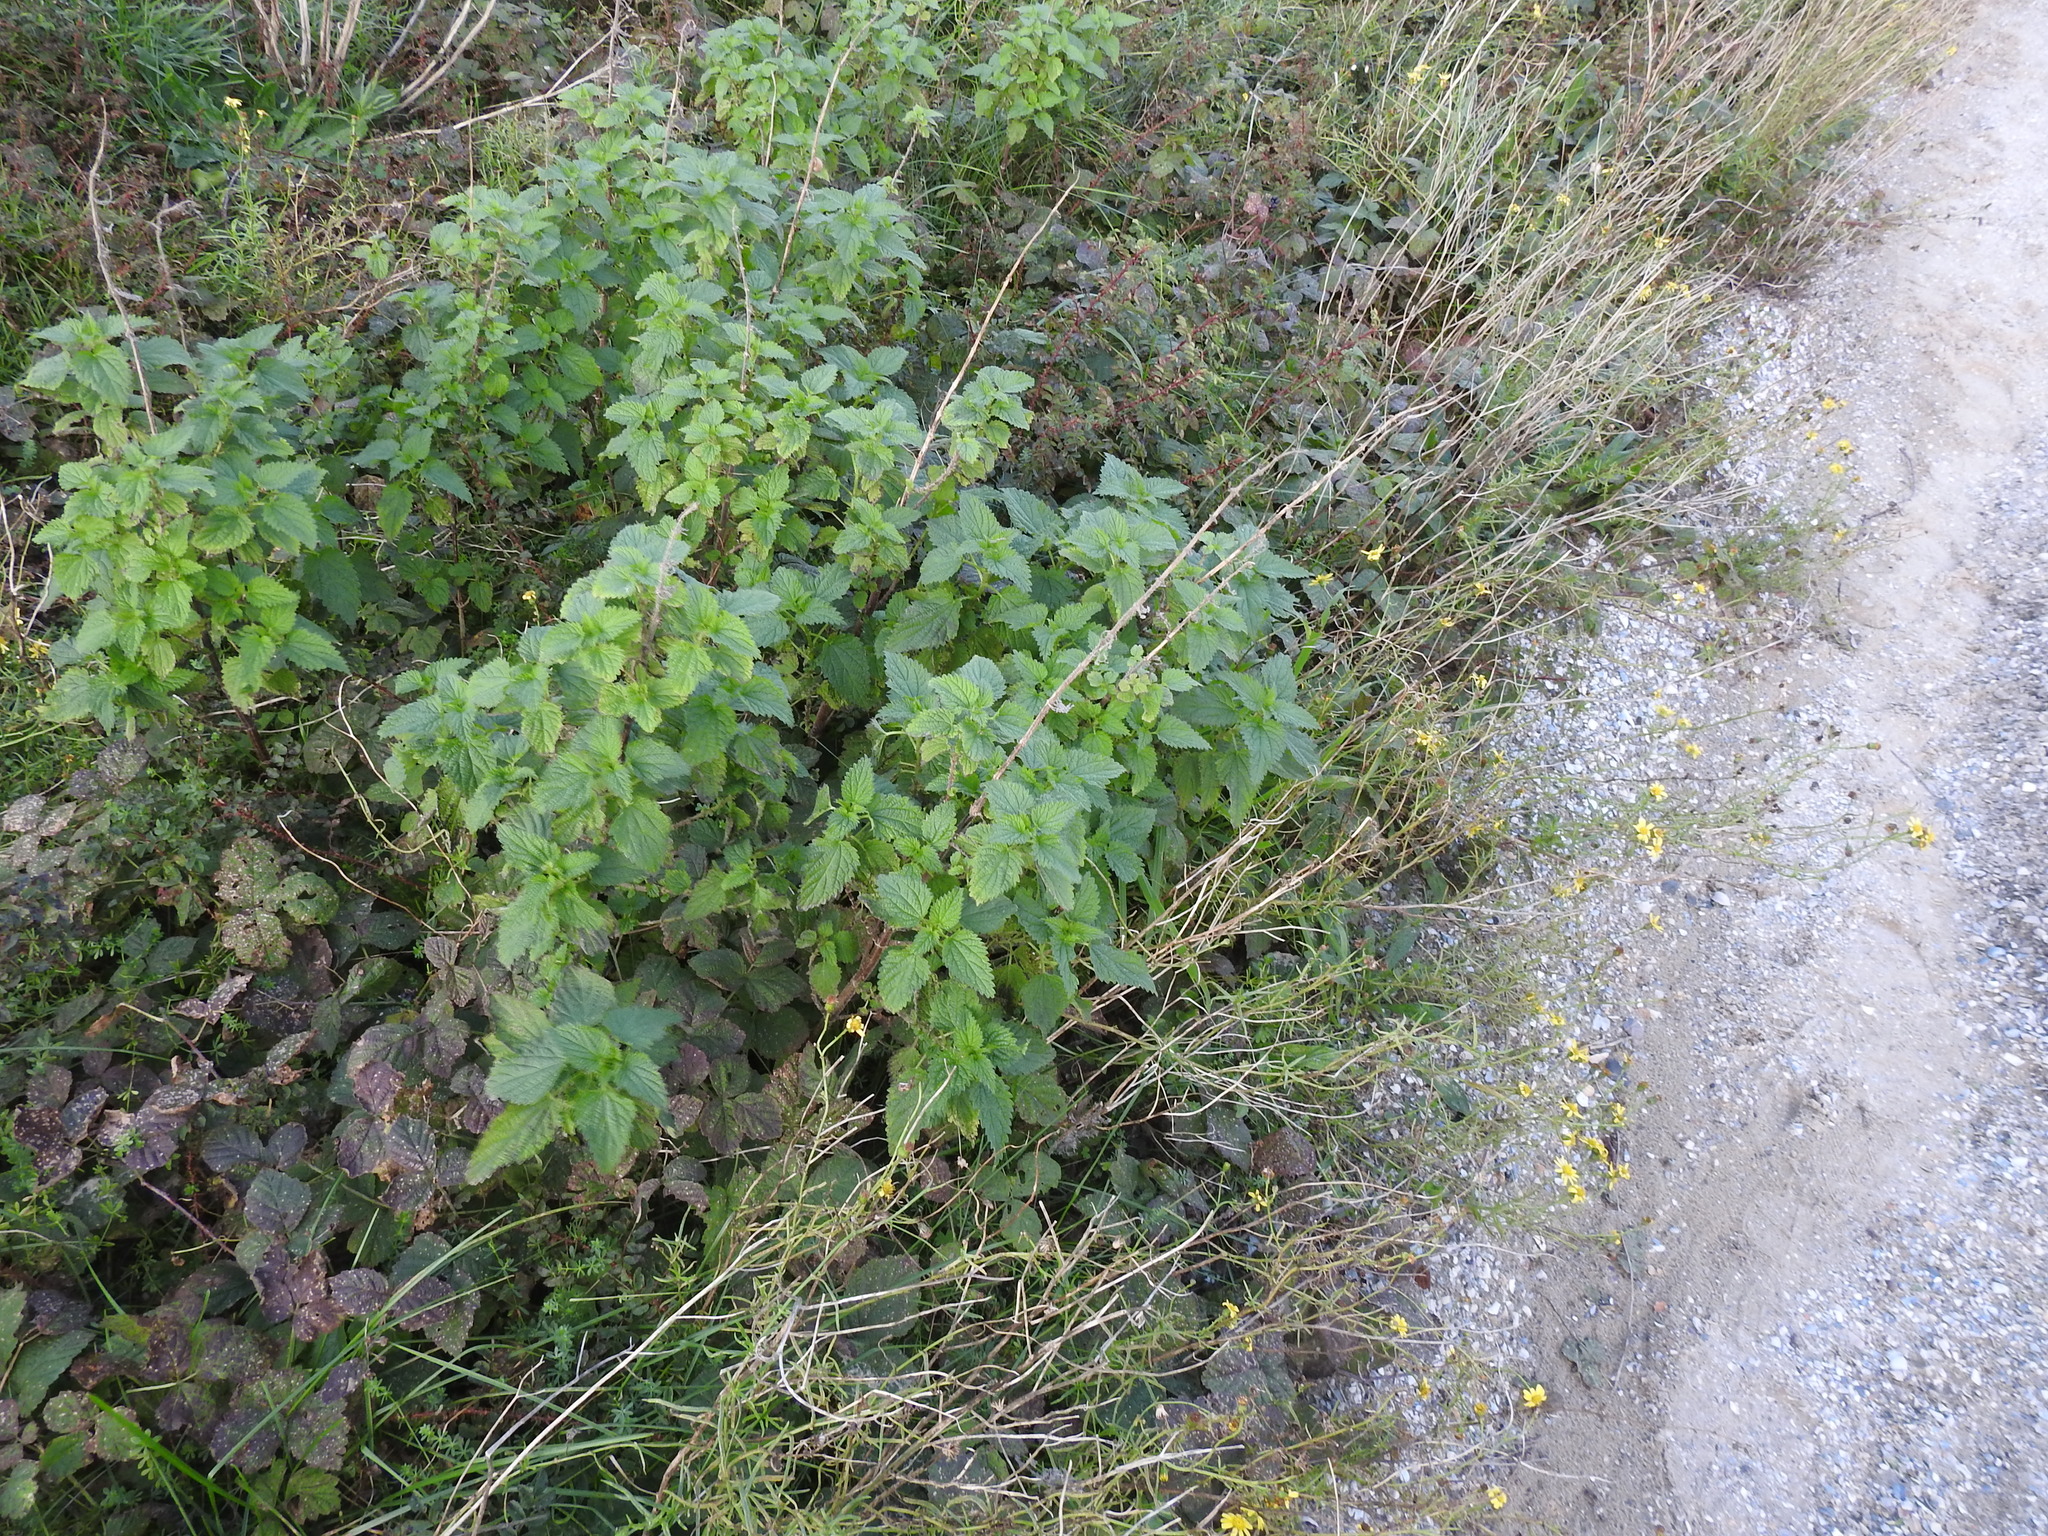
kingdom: Plantae
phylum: Tracheophyta
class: Magnoliopsida
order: Rosales
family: Urticaceae
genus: Urtica
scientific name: Urtica dioica
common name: Common nettle
